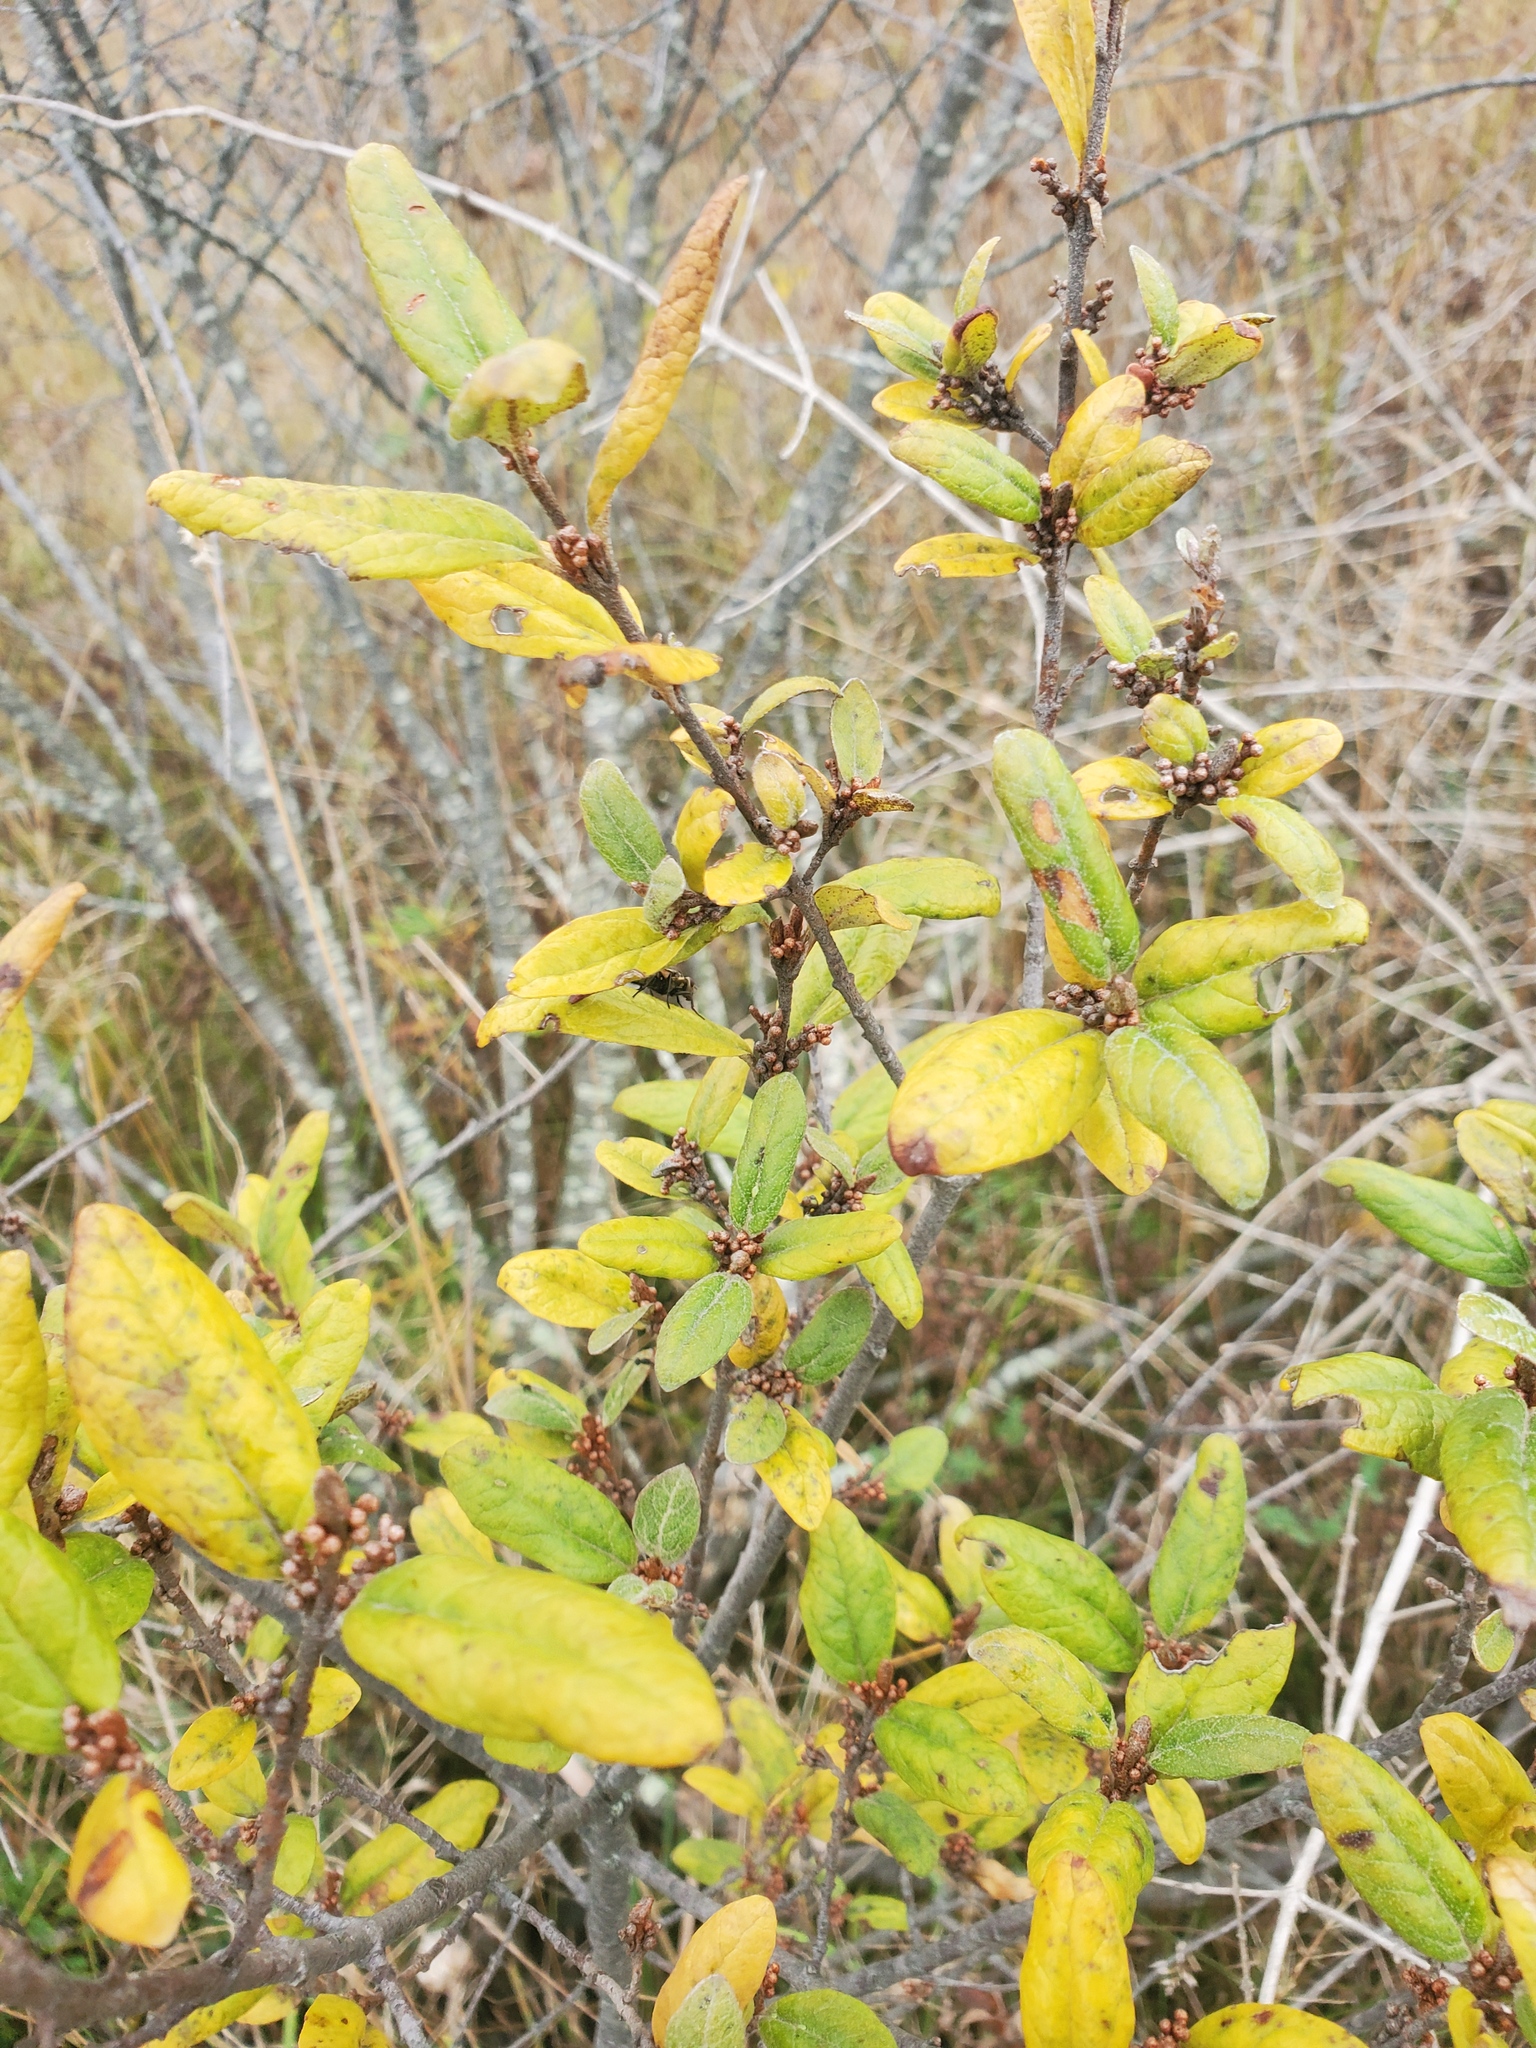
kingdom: Plantae
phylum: Tracheophyta
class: Magnoliopsida
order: Rosales
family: Elaeagnaceae
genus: Shepherdia
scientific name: Shepherdia canadensis
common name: Soapberry
